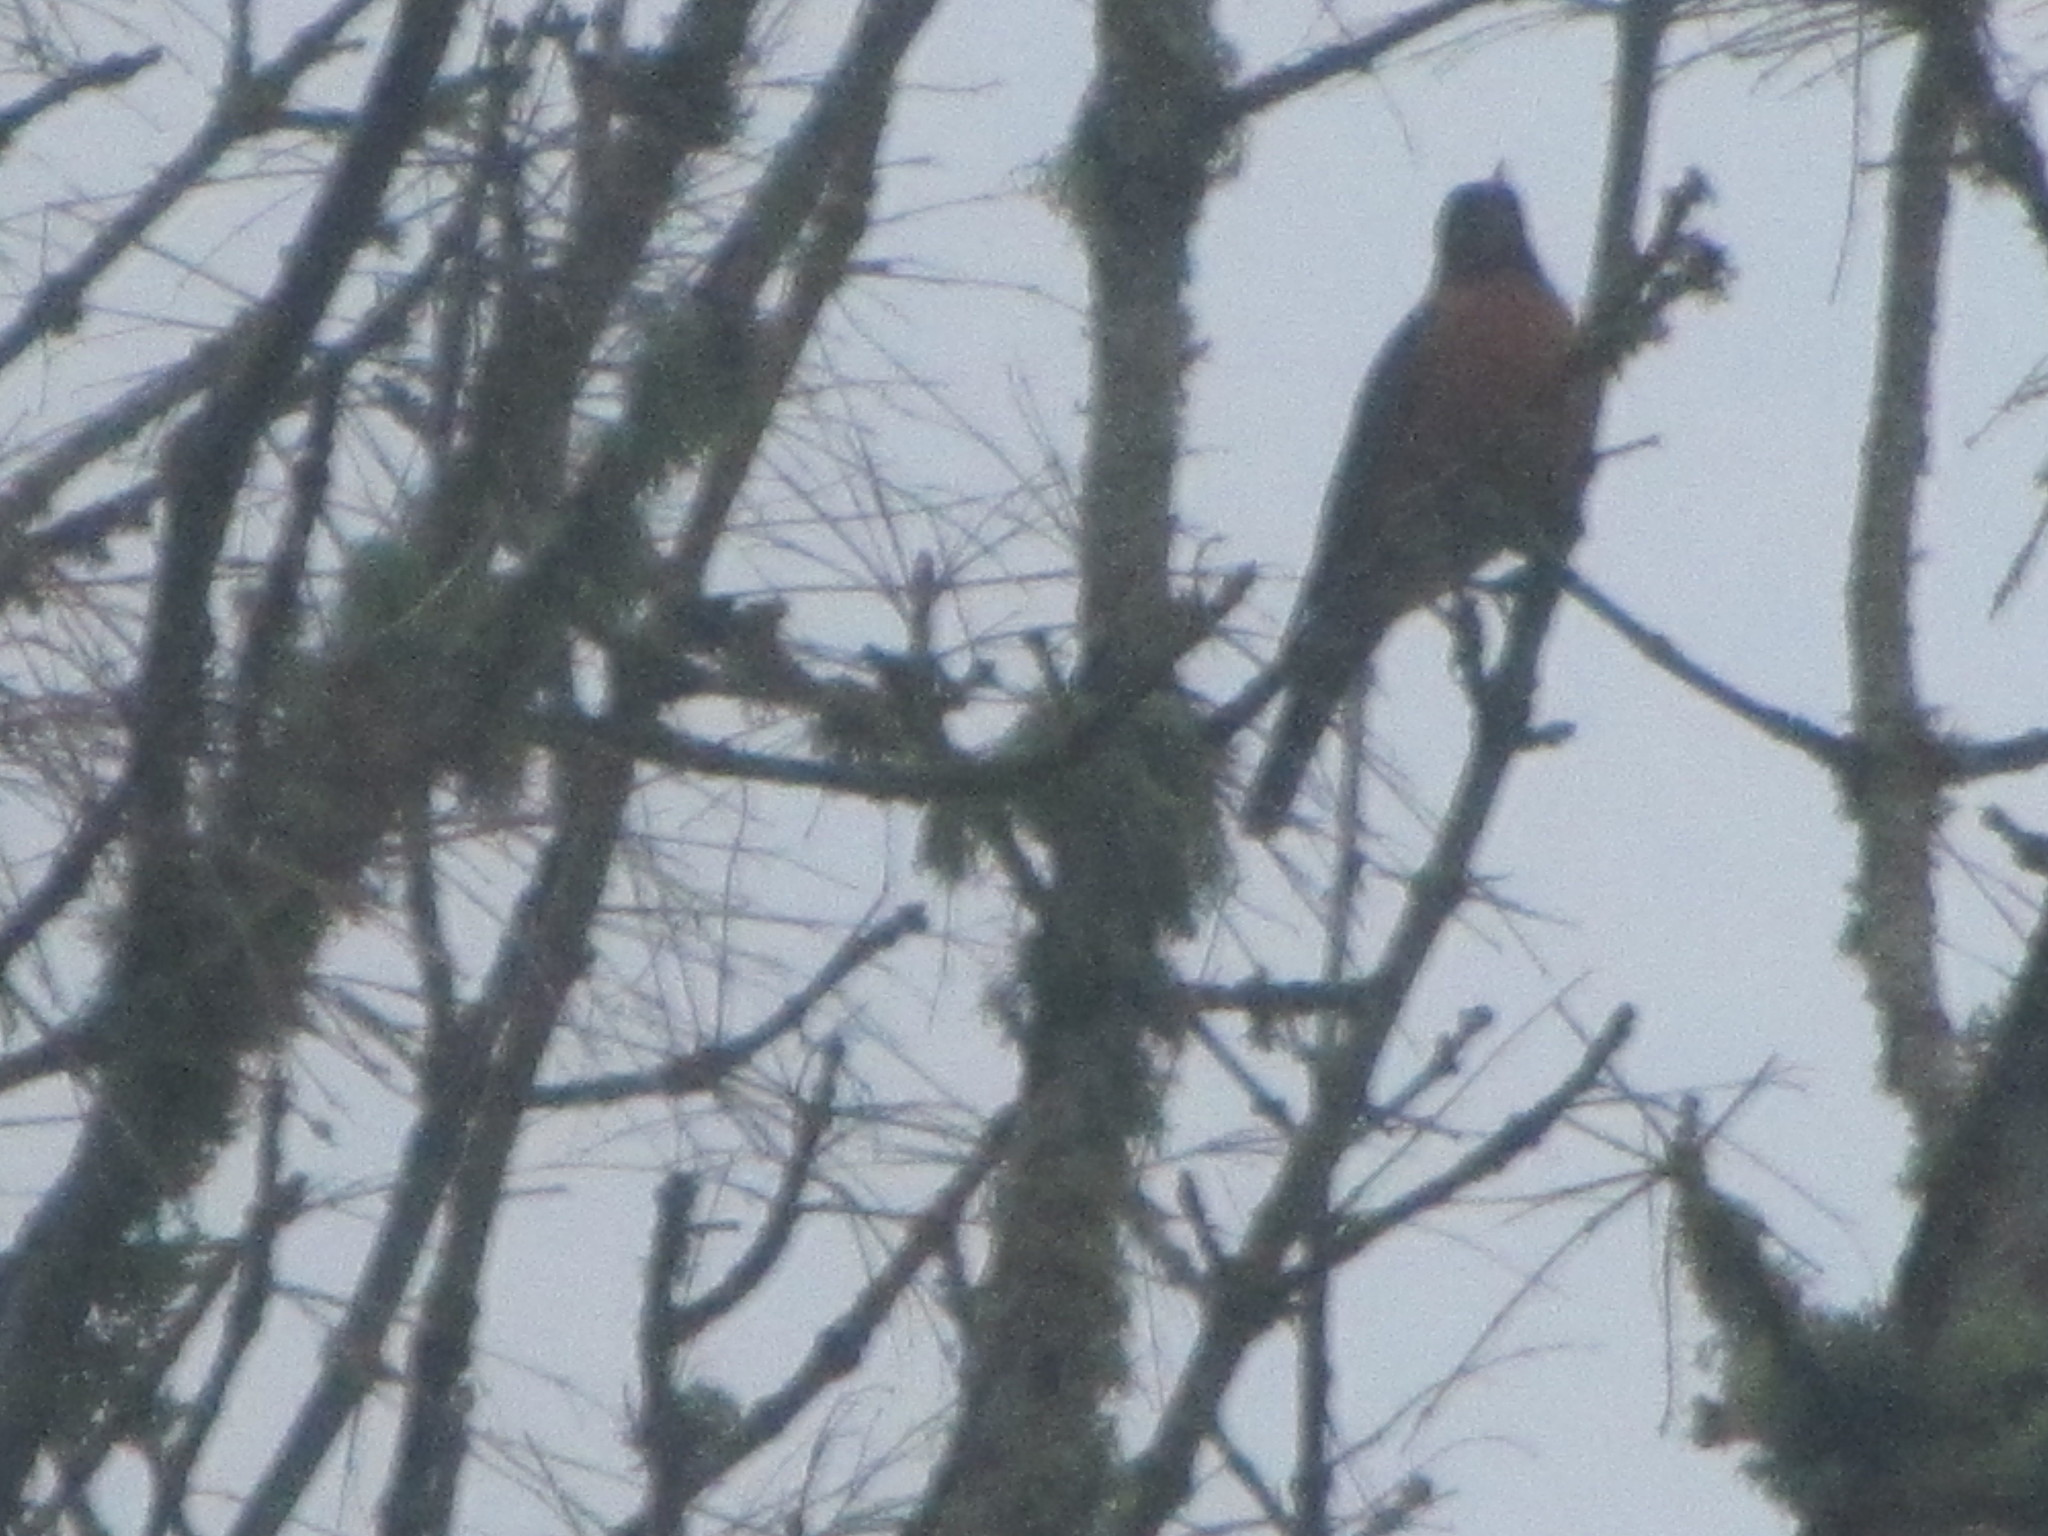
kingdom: Animalia
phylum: Chordata
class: Aves
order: Passeriformes
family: Turdidae
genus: Turdus
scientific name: Turdus migratorius
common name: American robin
